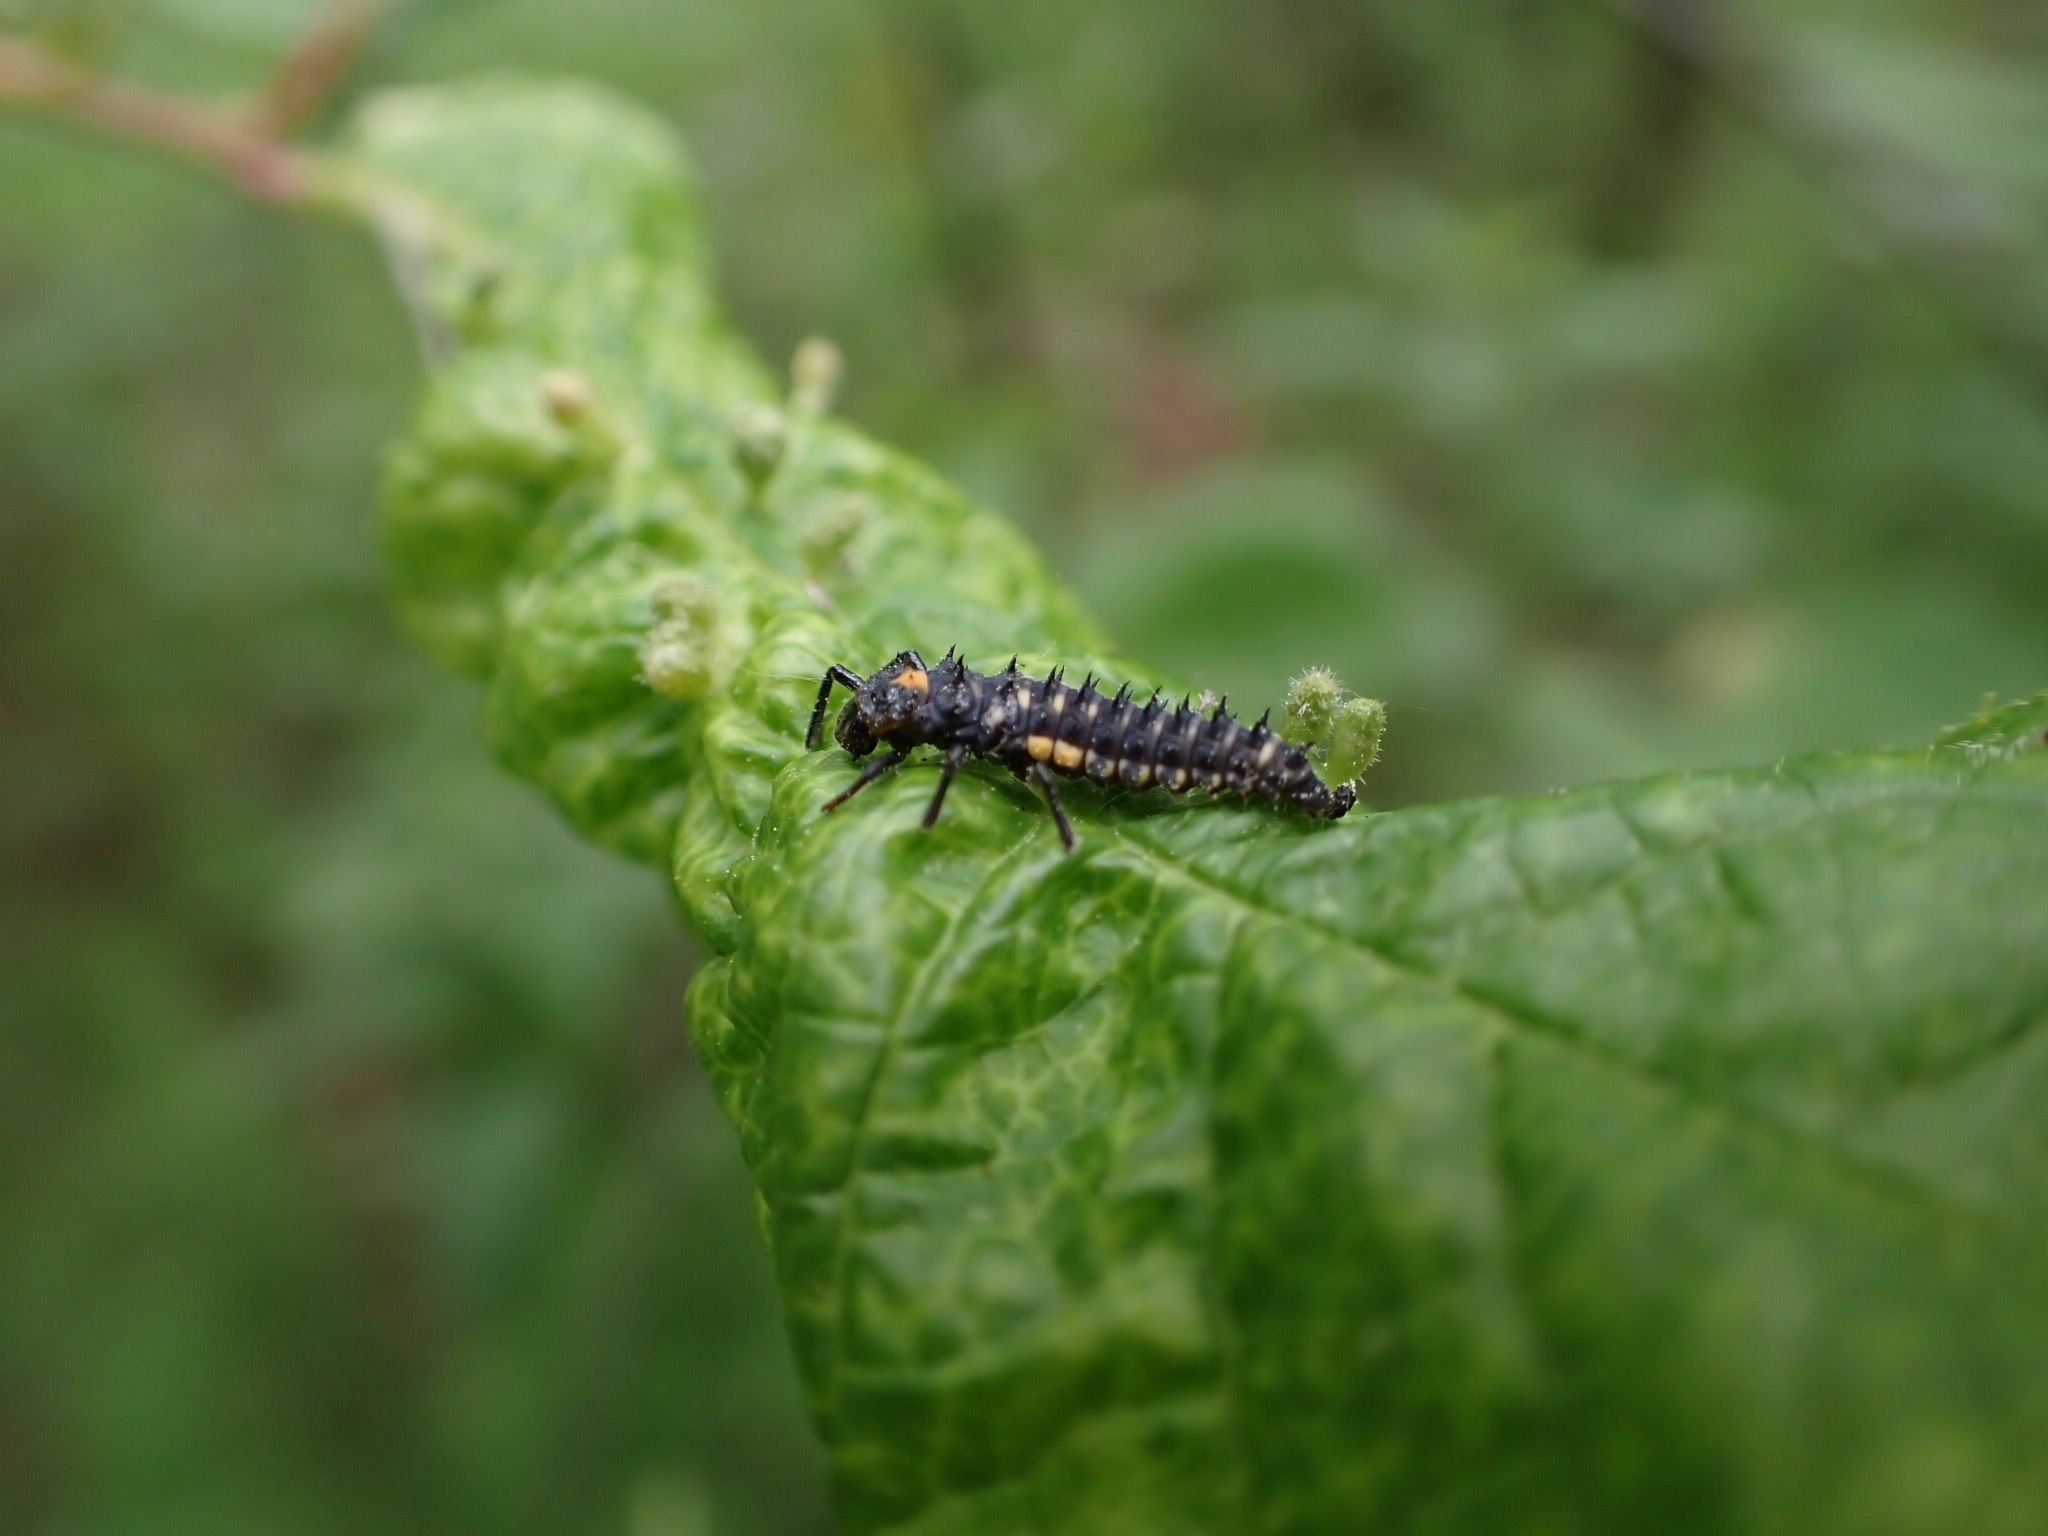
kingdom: Animalia
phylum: Arthropoda
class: Insecta
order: Coleoptera
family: Coccinellidae
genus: Anatis
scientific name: Anatis ocellata
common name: Eyed ladybird
